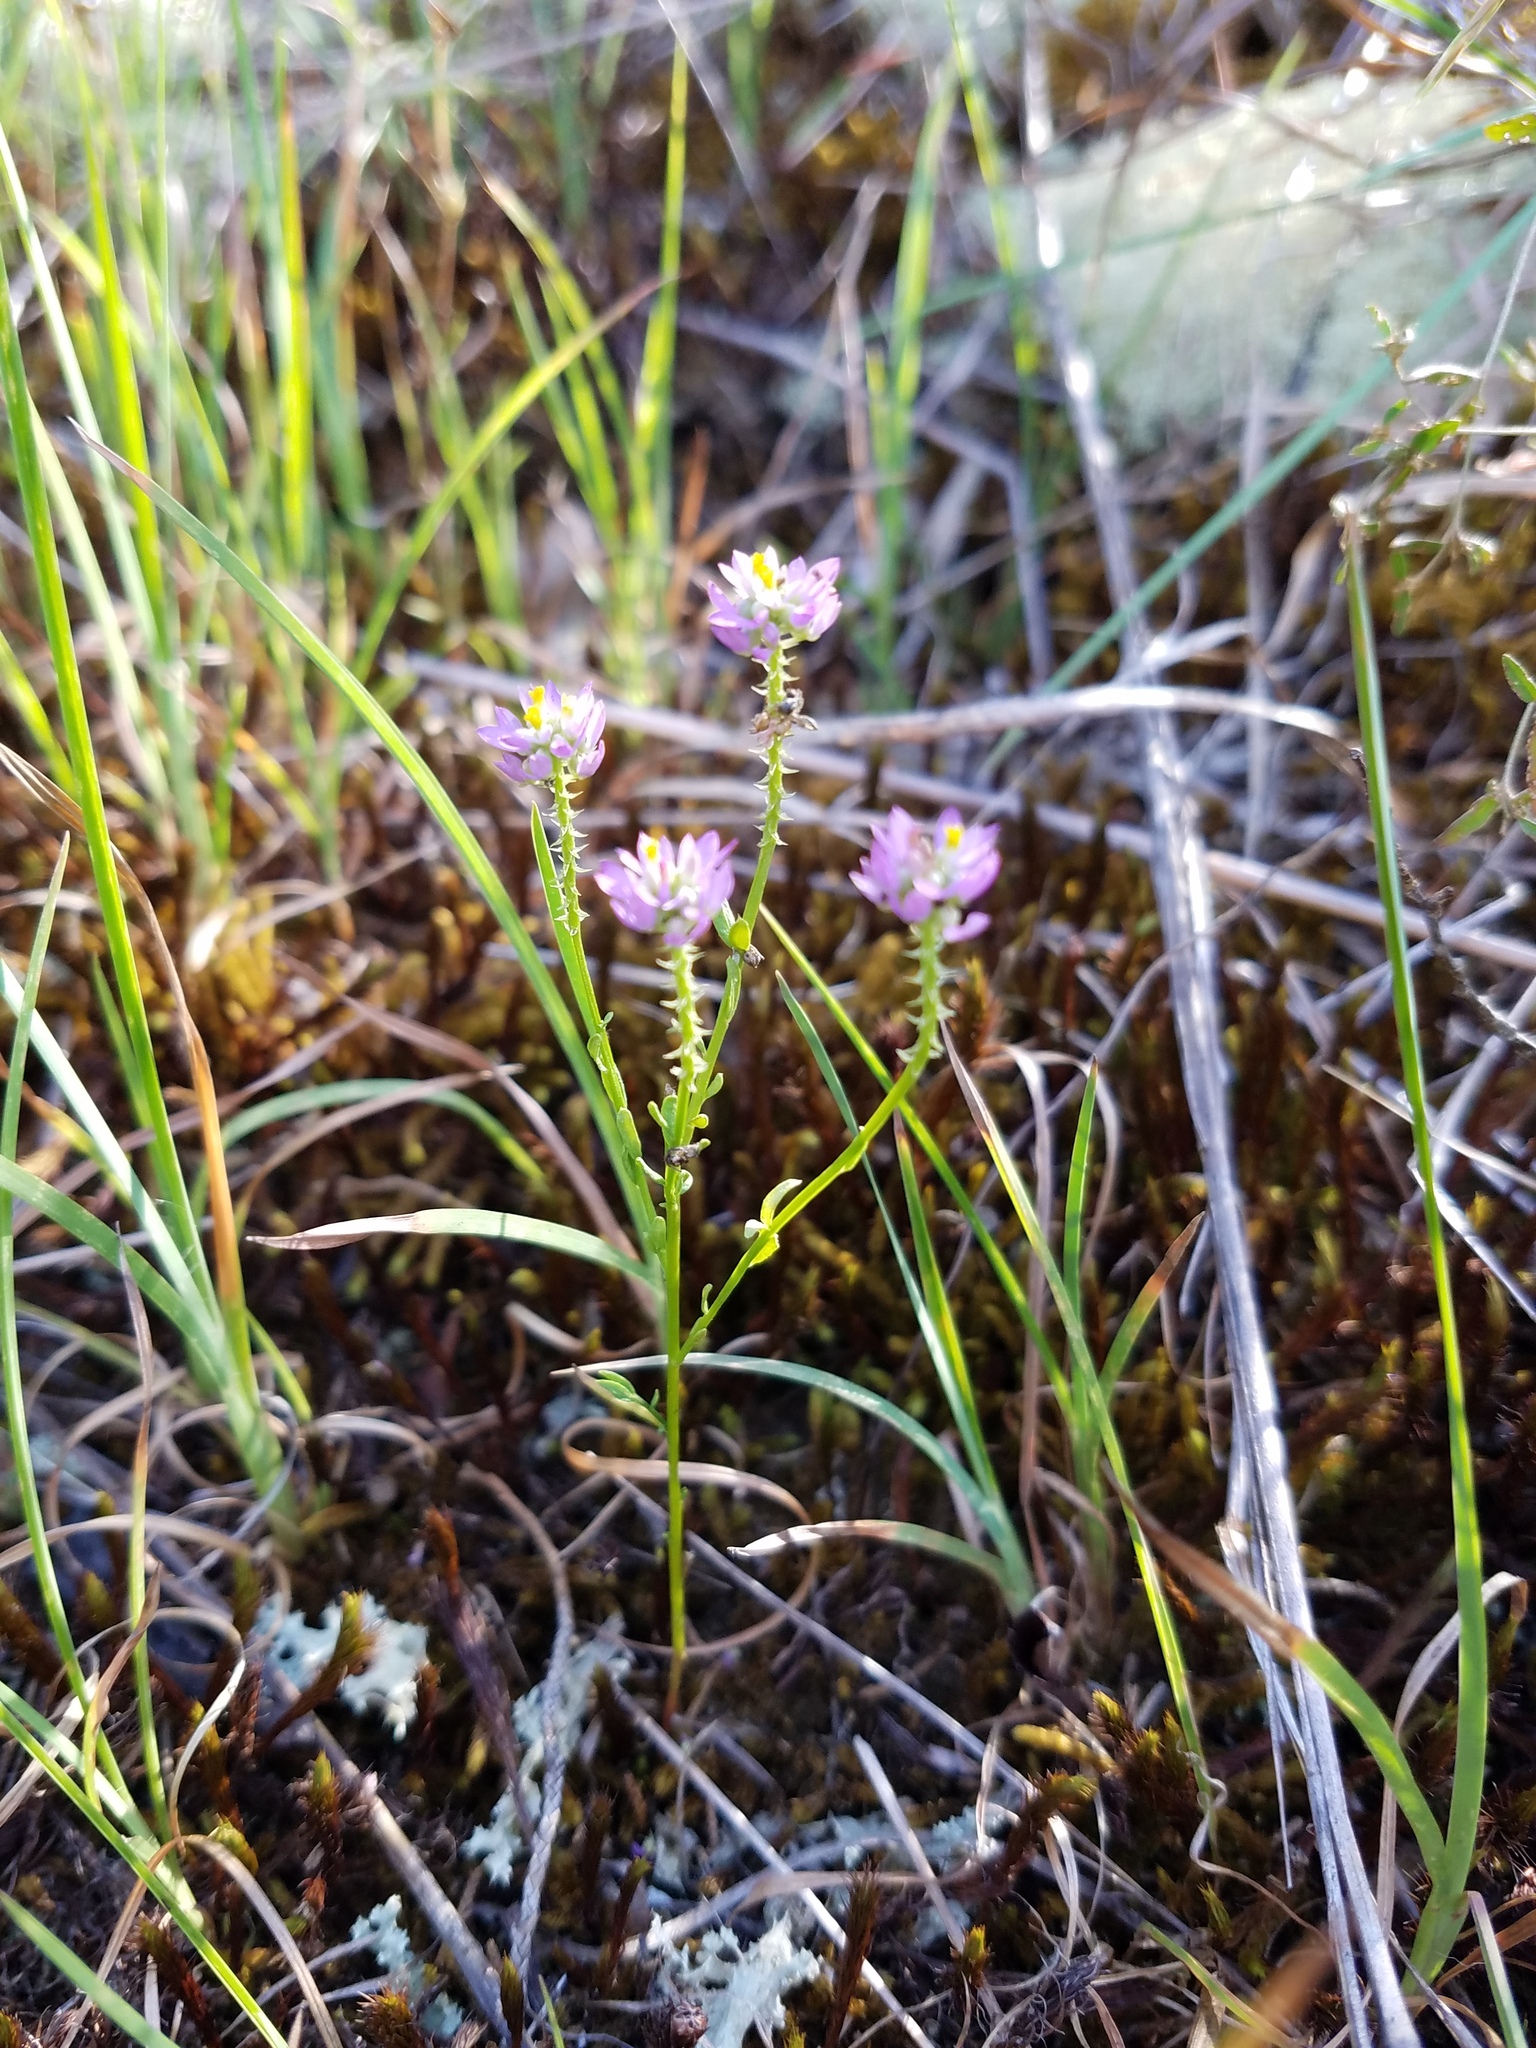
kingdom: Plantae
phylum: Tracheophyta
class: Magnoliopsida
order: Fabales
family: Polygalaceae
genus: Polygala
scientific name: Polygala curtissii
